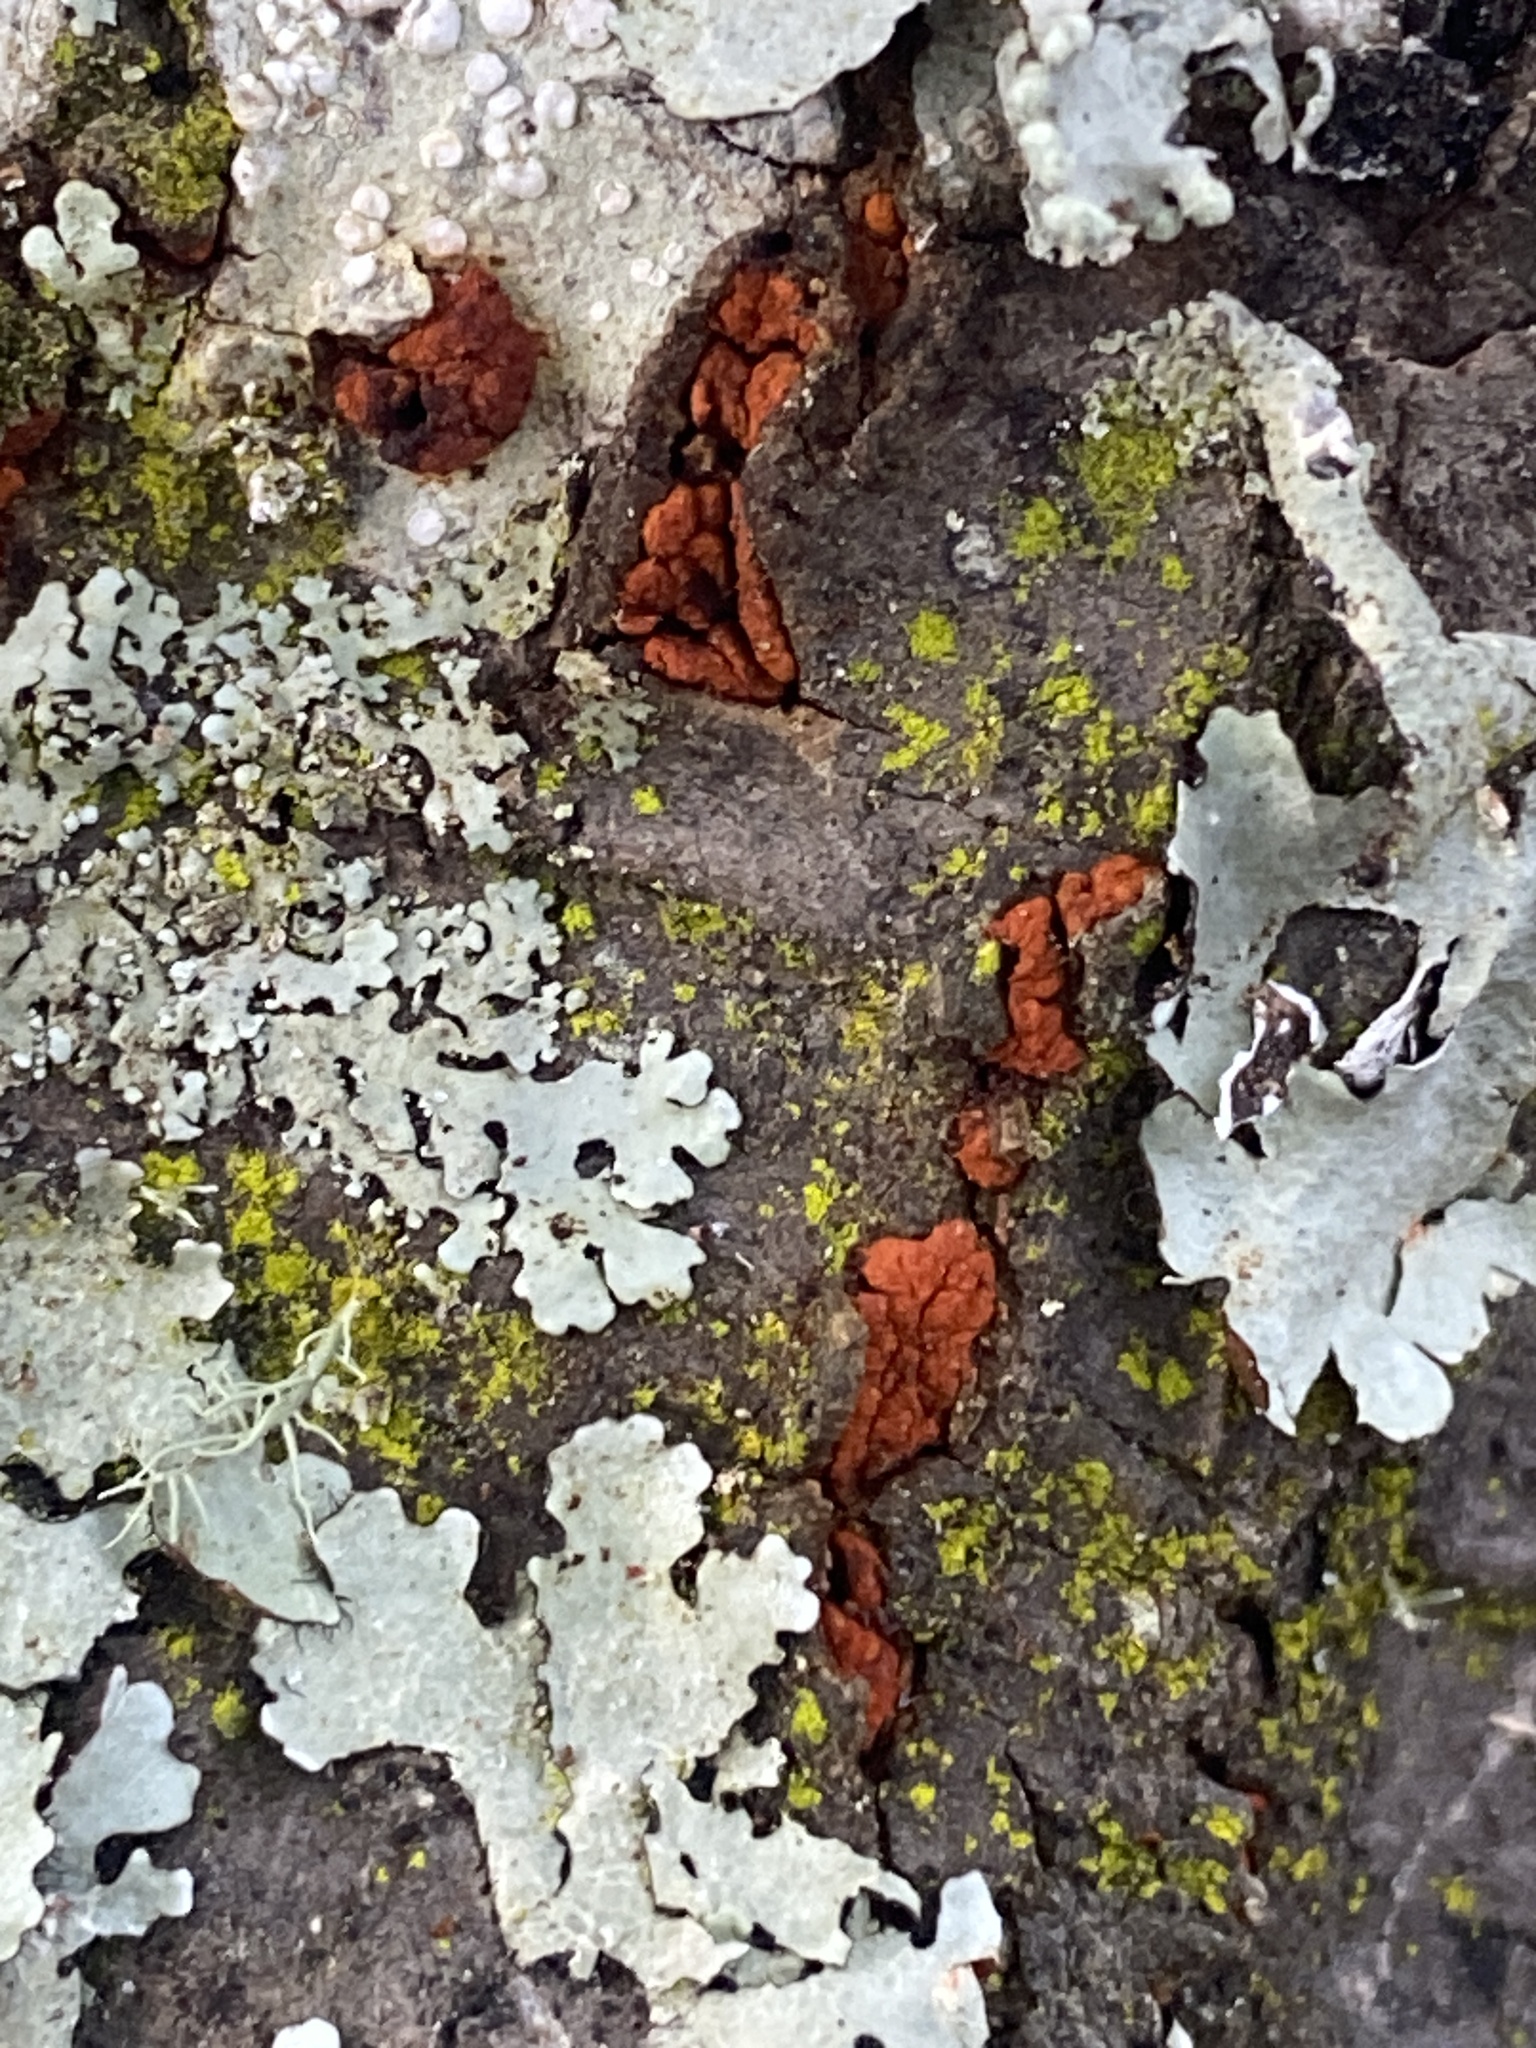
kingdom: Fungi
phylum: Ascomycota
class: Sordariomycetes
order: Diaporthales
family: Cryphonectriaceae
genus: Amphilogia
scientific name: Amphilogia gyrosa
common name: Orange hobnail canker
